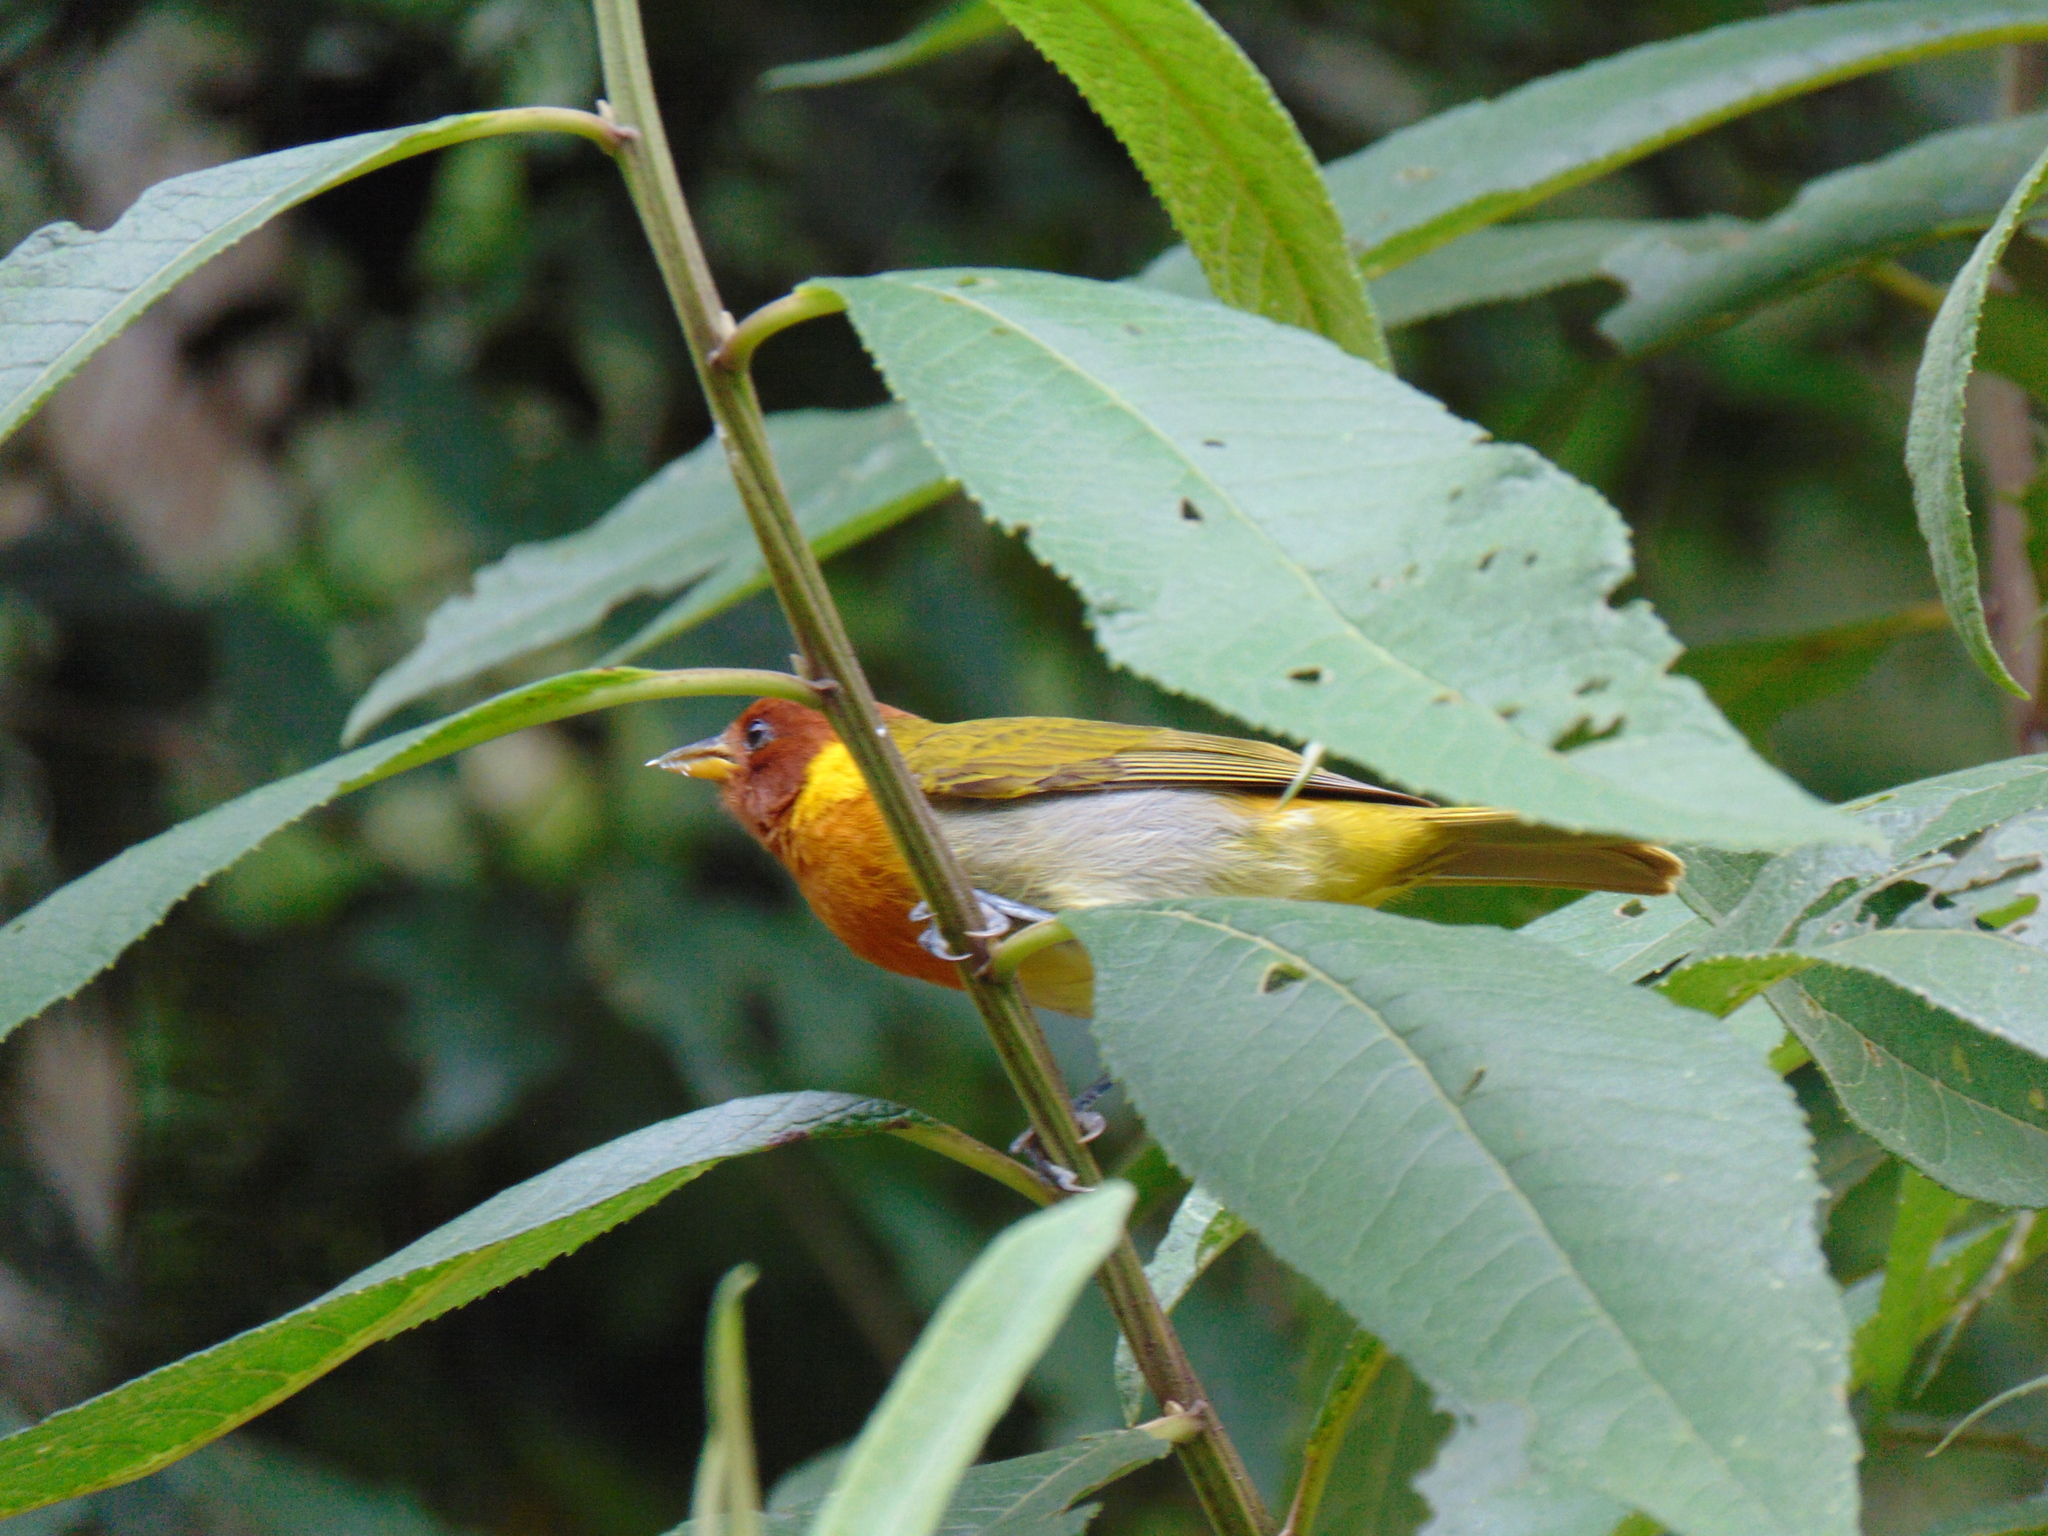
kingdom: Animalia
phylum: Chordata
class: Aves
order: Passeriformes
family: Thraupidae
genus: Hemithraupis
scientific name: Hemithraupis ruficapilla
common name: Rufous-headed tanager
